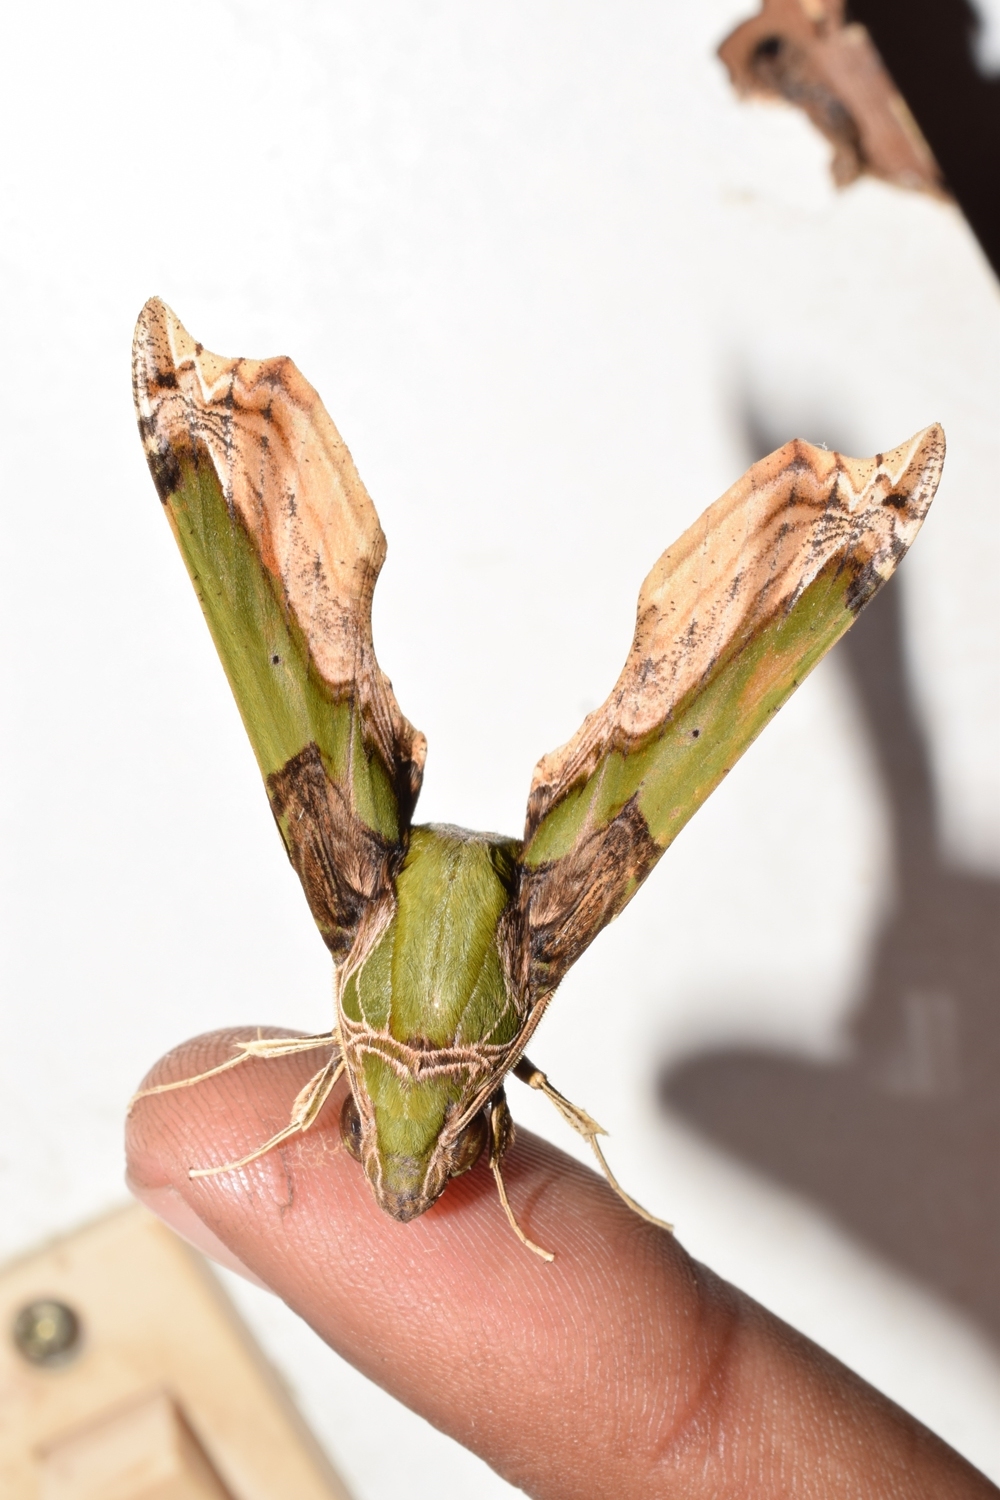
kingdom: Animalia
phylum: Arthropoda
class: Insecta
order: Lepidoptera
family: Sphingidae
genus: Eupanacra
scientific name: Eupanacra busiris
